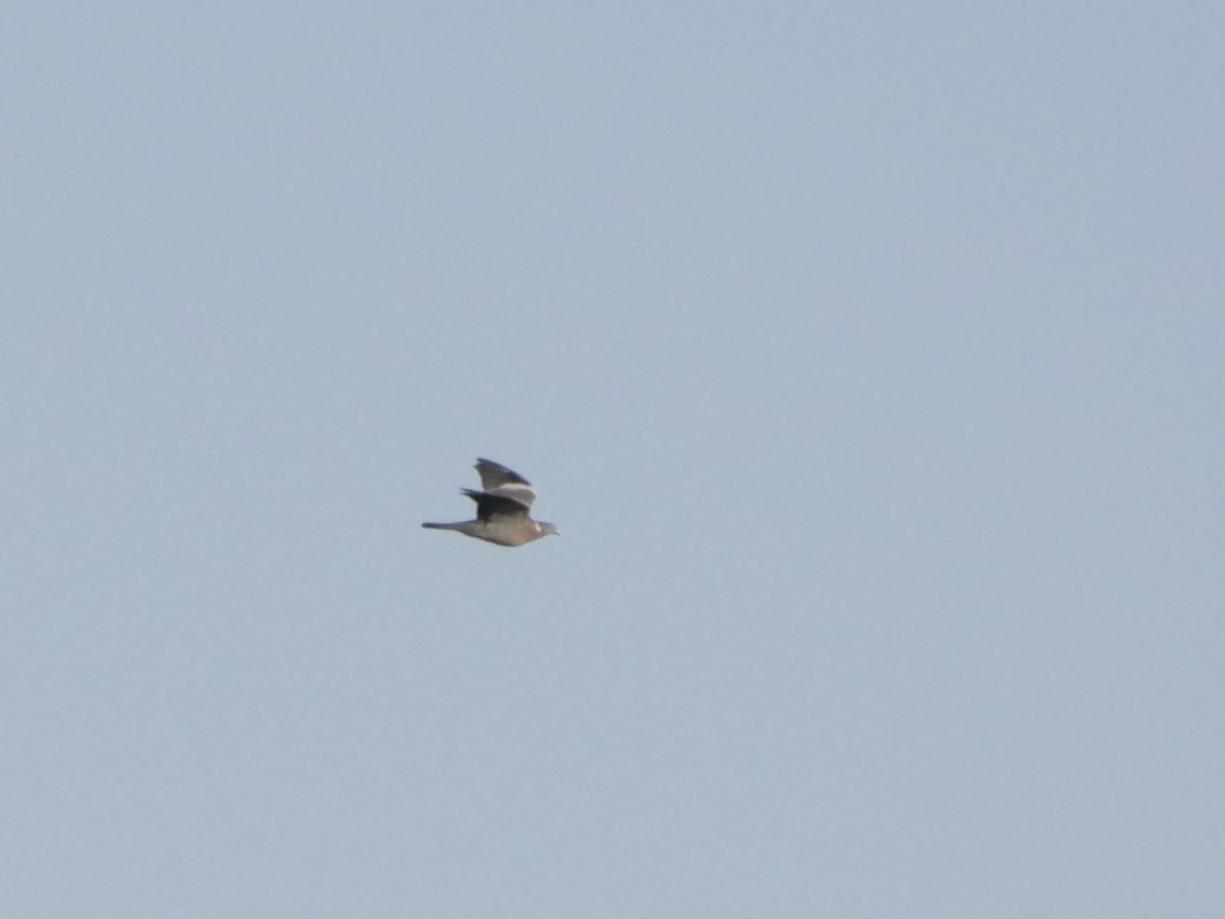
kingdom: Animalia
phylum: Chordata
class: Aves
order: Columbiformes
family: Columbidae
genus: Columba
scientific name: Columba palumbus
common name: Common wood pigeon
